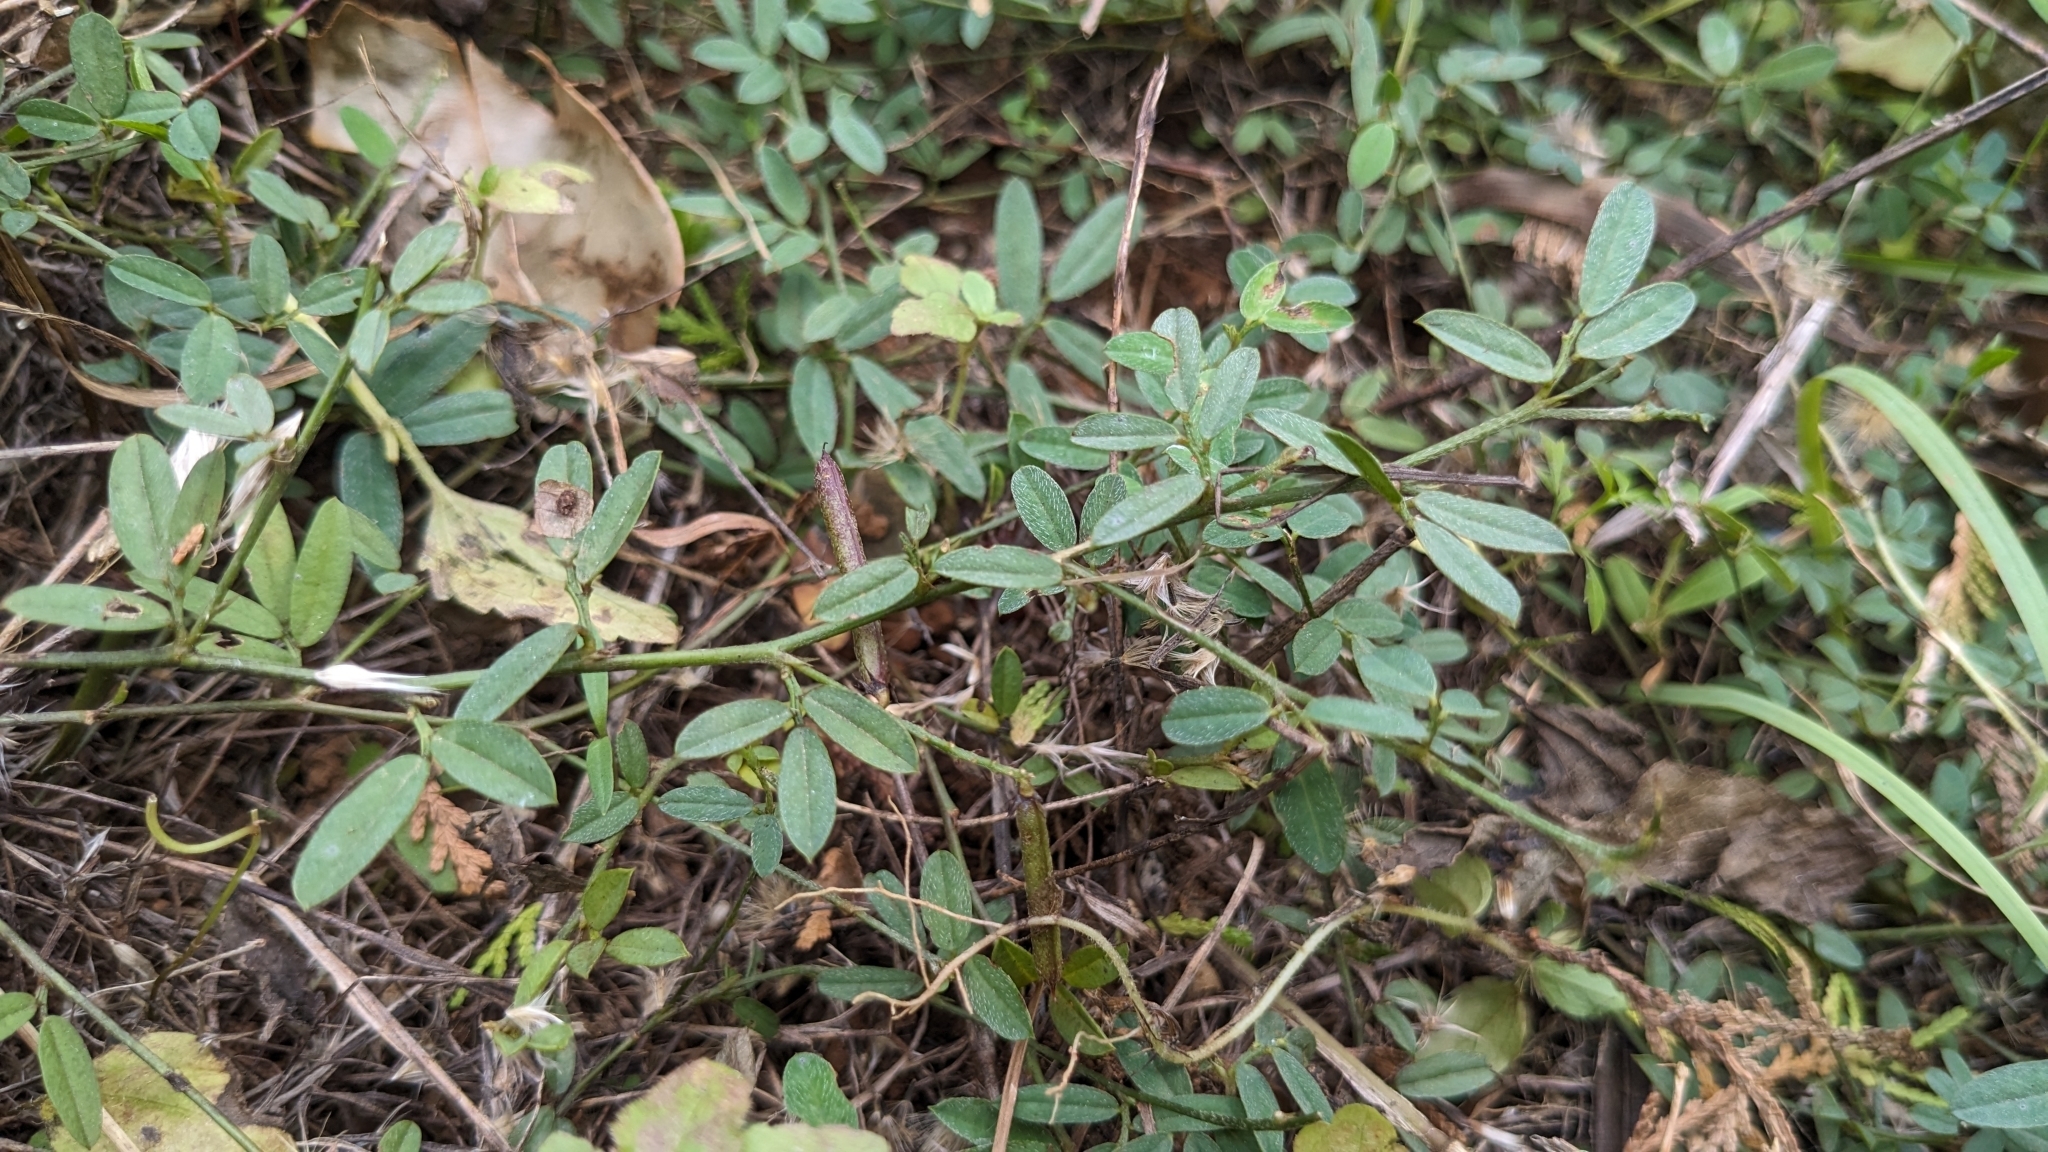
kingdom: Plantae
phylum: Tracheophyta
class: Magnoliopsida
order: Fabales
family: Fabaceae
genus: Indigofera
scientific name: Indigofera taiwaniana
